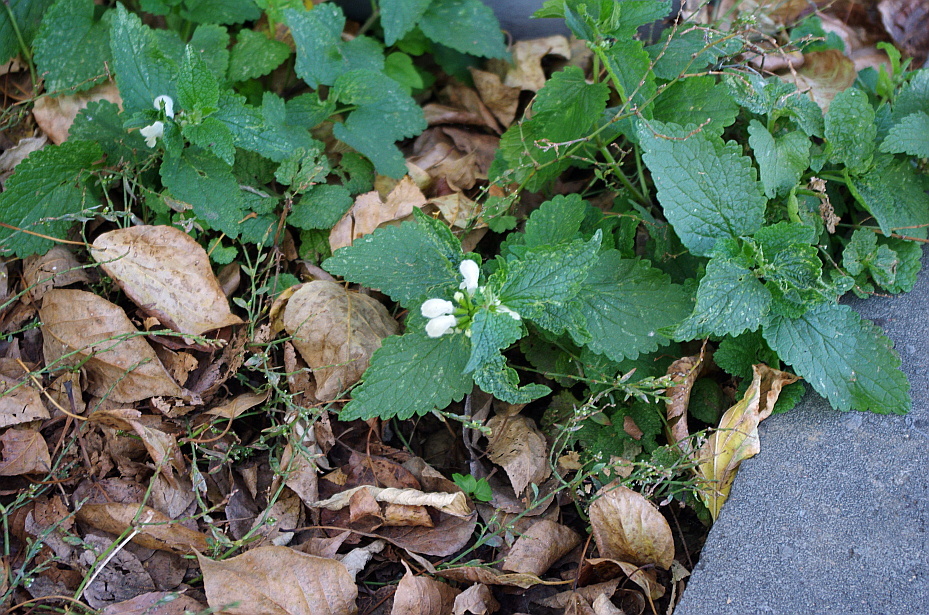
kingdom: Plantae
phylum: Tracheophyta
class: Magnoliopsida
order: Lamiales
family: Lamiaceae
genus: Lamium
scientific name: Lamium album
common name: White dead-nettle
